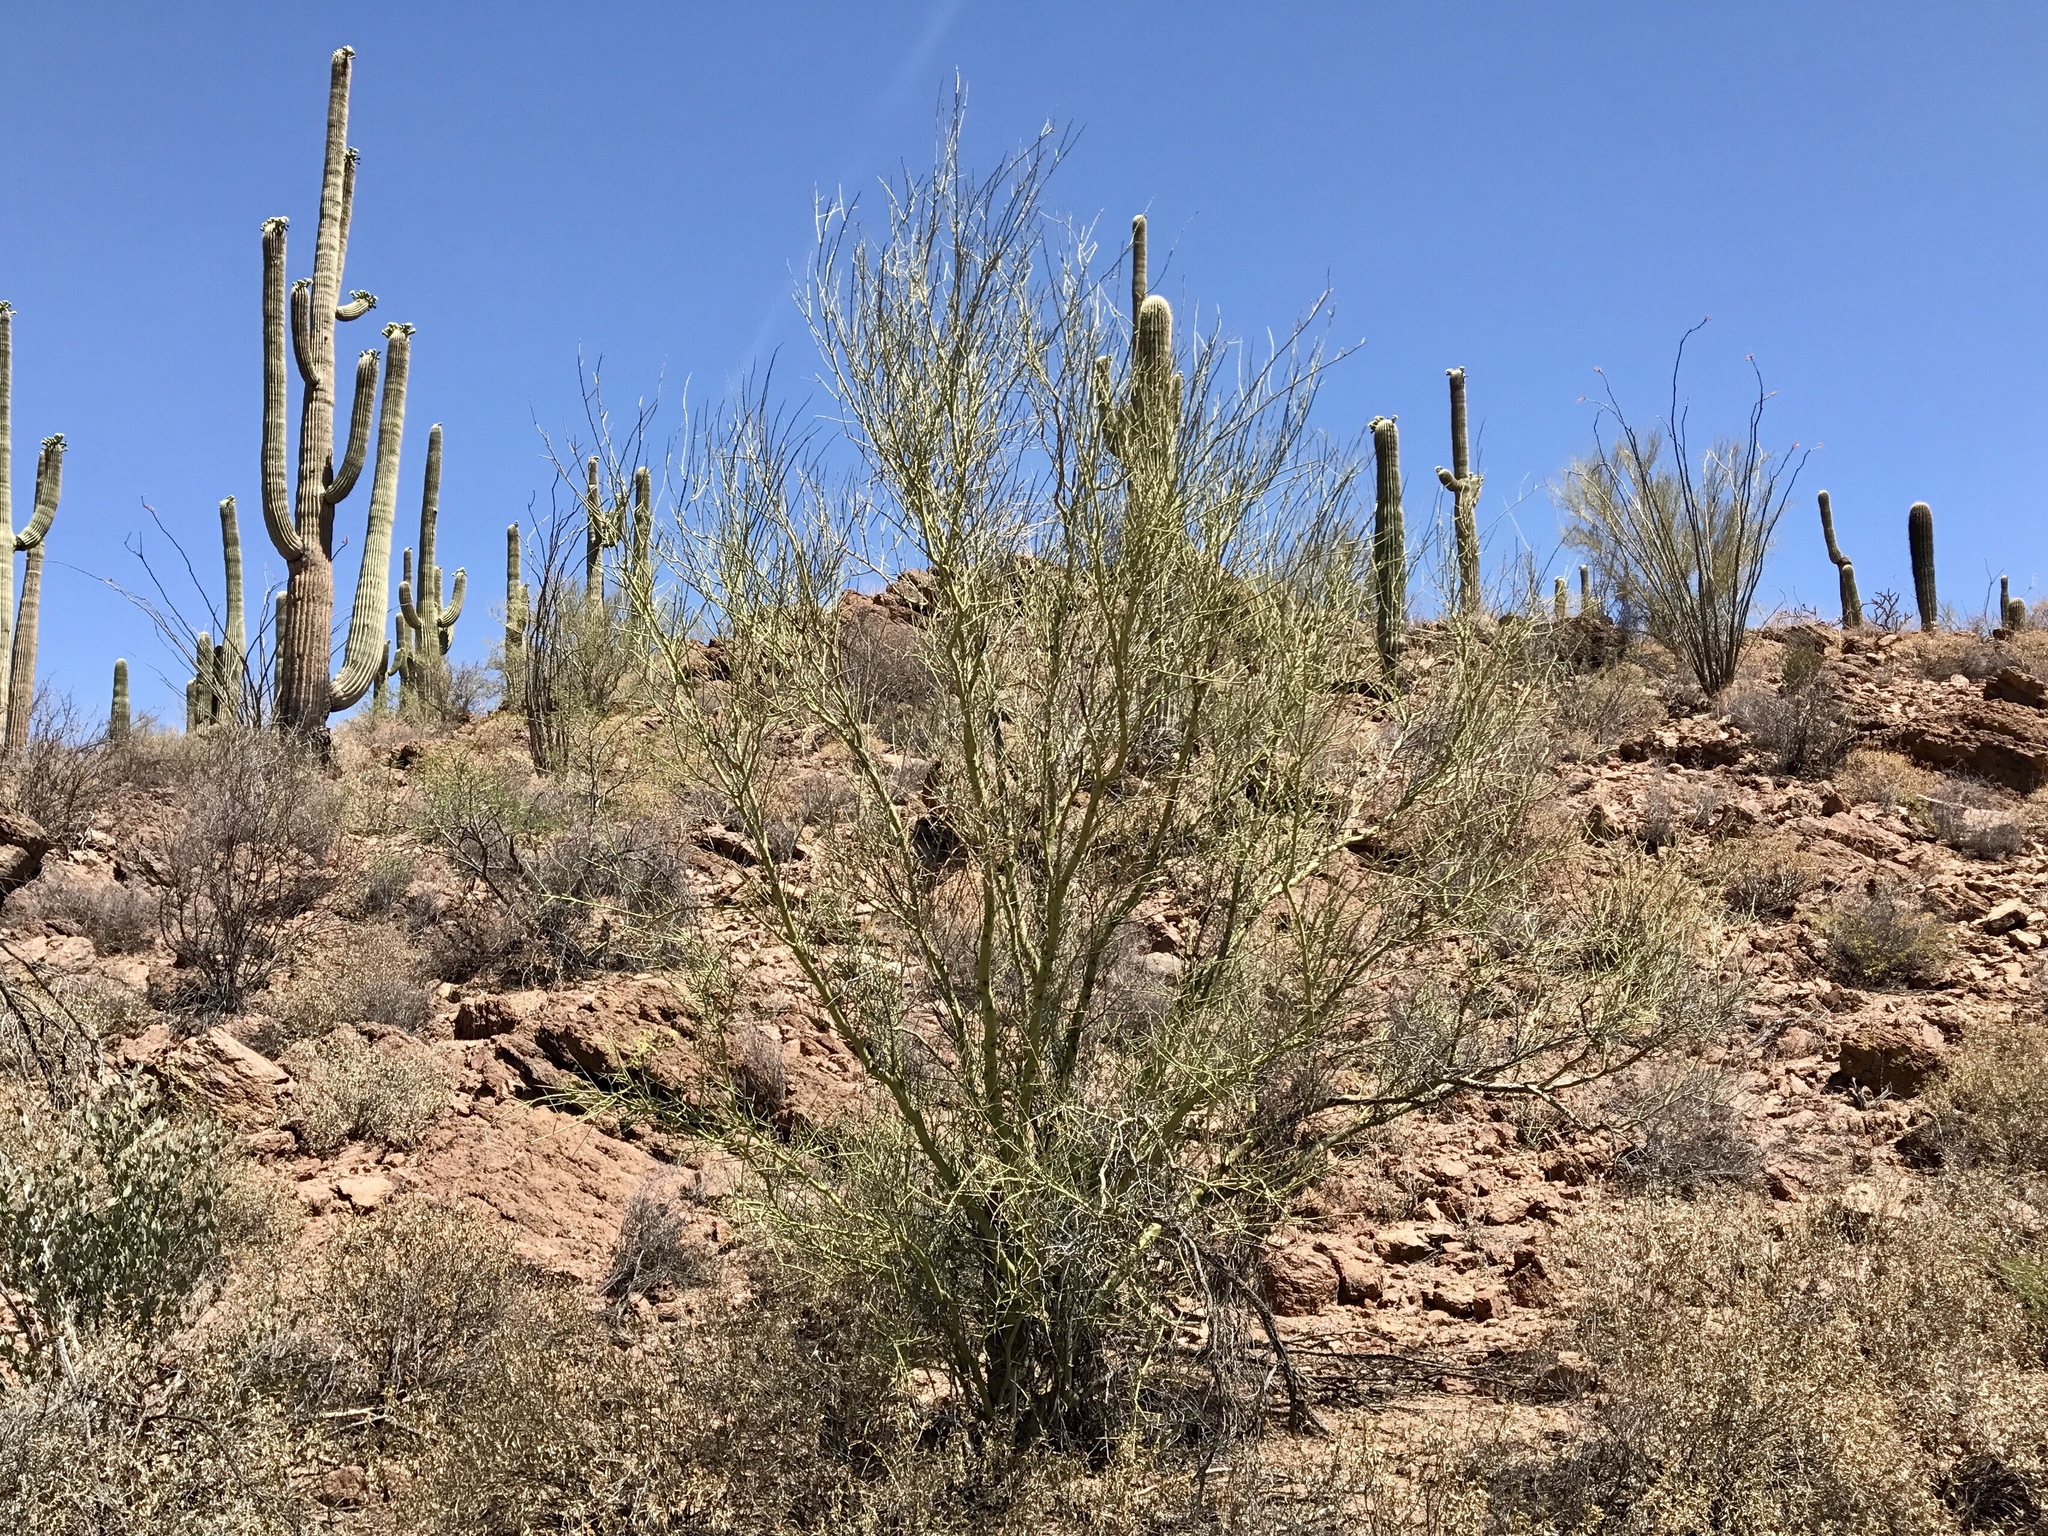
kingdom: Plantae
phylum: Tracheophyta
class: Magnoliopsida
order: Fabales
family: Fabaceae
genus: Parkinsonia
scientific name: Parkinsonia microphylla
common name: Yellow paloverde
